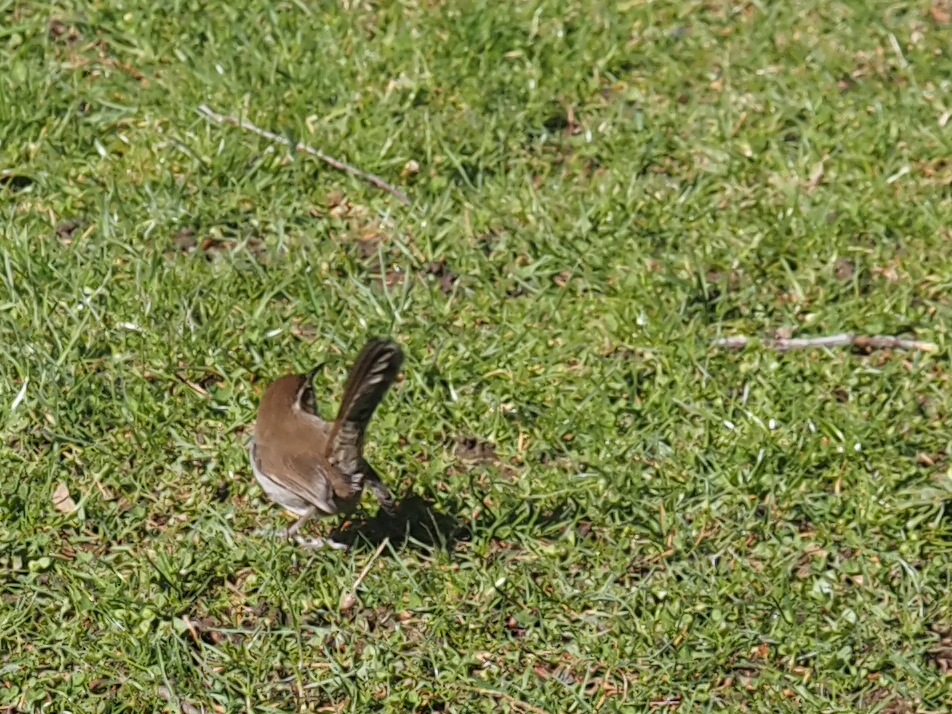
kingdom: Animalia
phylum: Chordata
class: Aves
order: Passeriformes
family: Troglodytidae
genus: Thryomanes
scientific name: Thryomanes bewickii
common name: Bewick's wren
